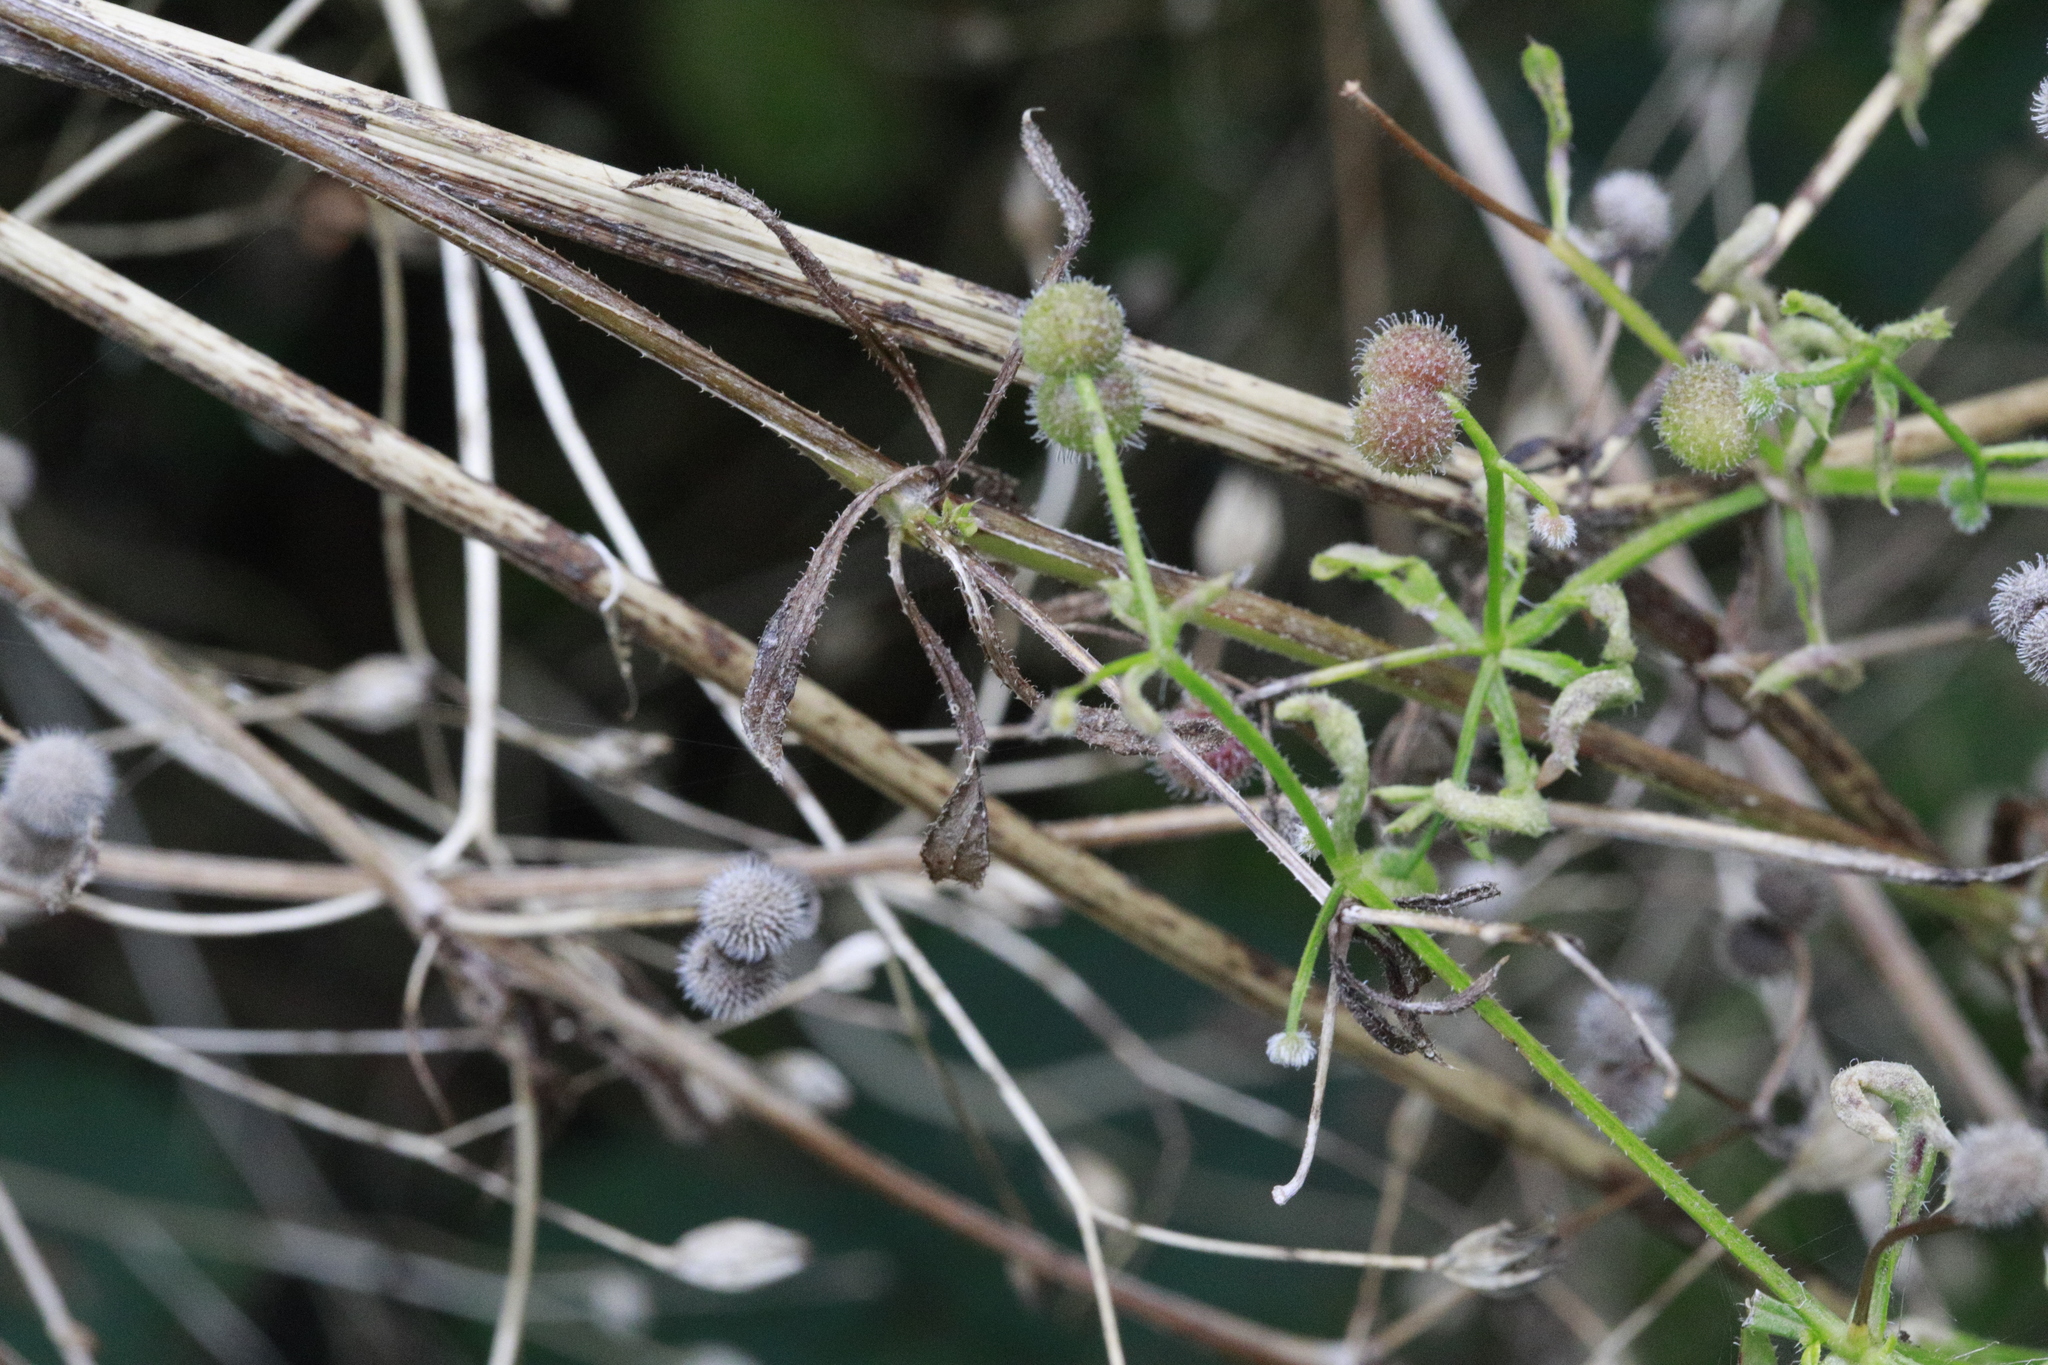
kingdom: Plantae
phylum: Tracheophyta
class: Magnoliopsida
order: Gentianales
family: Rubiaceae
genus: Galium
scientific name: Galium aparine
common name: Cleavers
